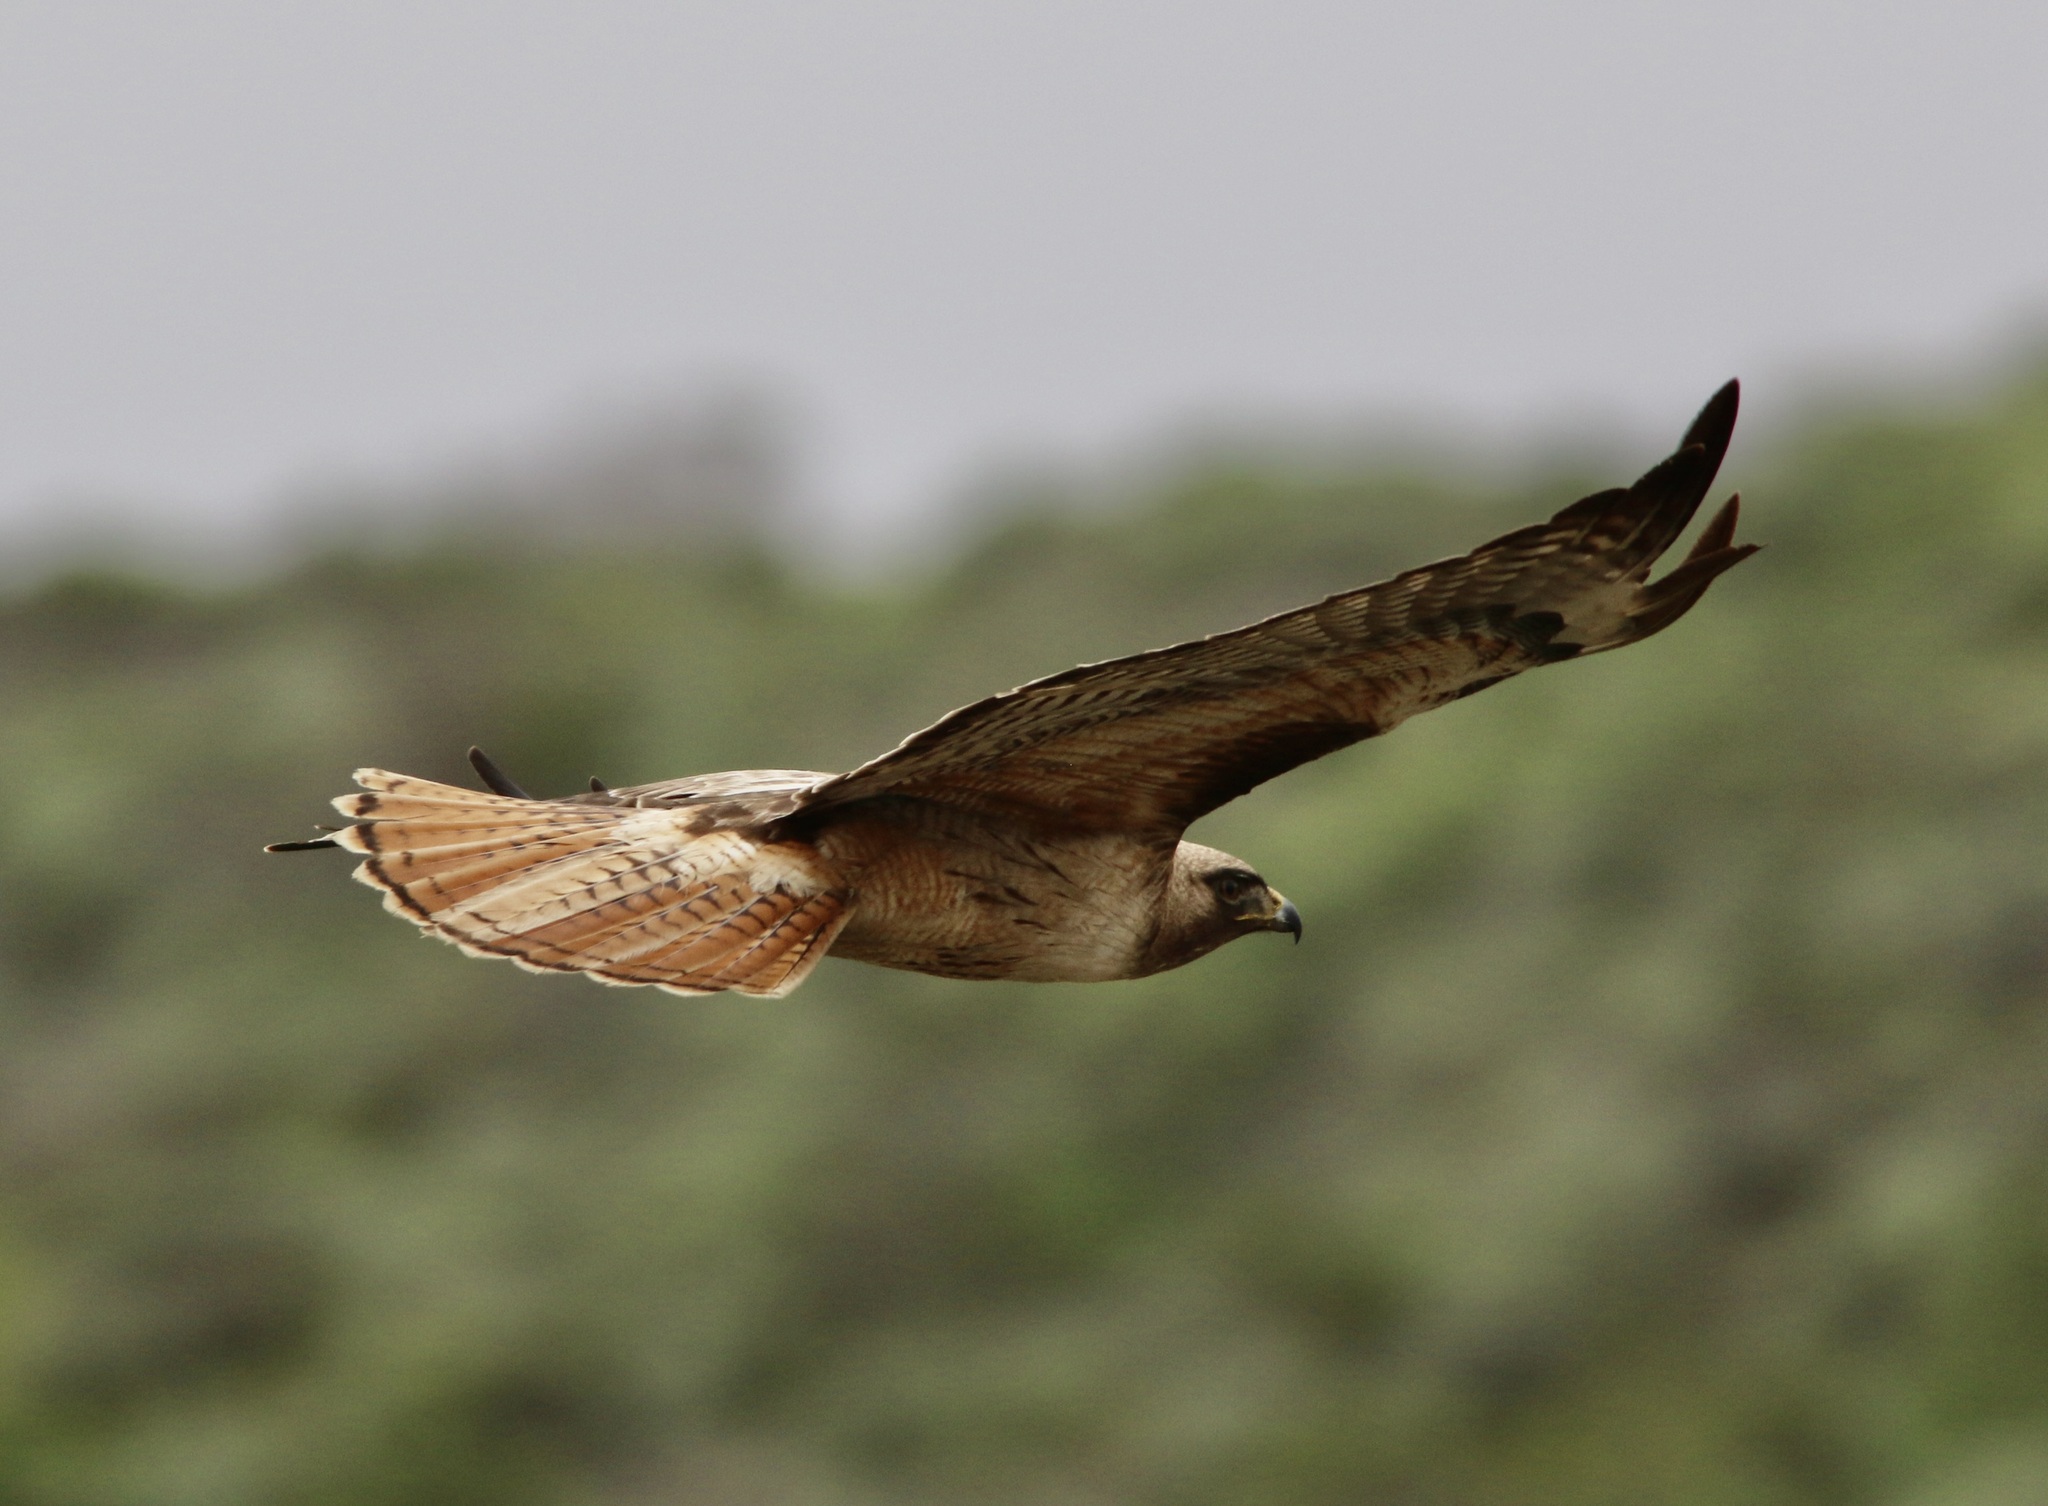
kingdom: Animalia
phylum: Chordata
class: Aves
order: Accipitriformes
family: Accipitridae
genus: Buteo
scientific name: Buteo jamaicensis
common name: Red-tailed hawk
